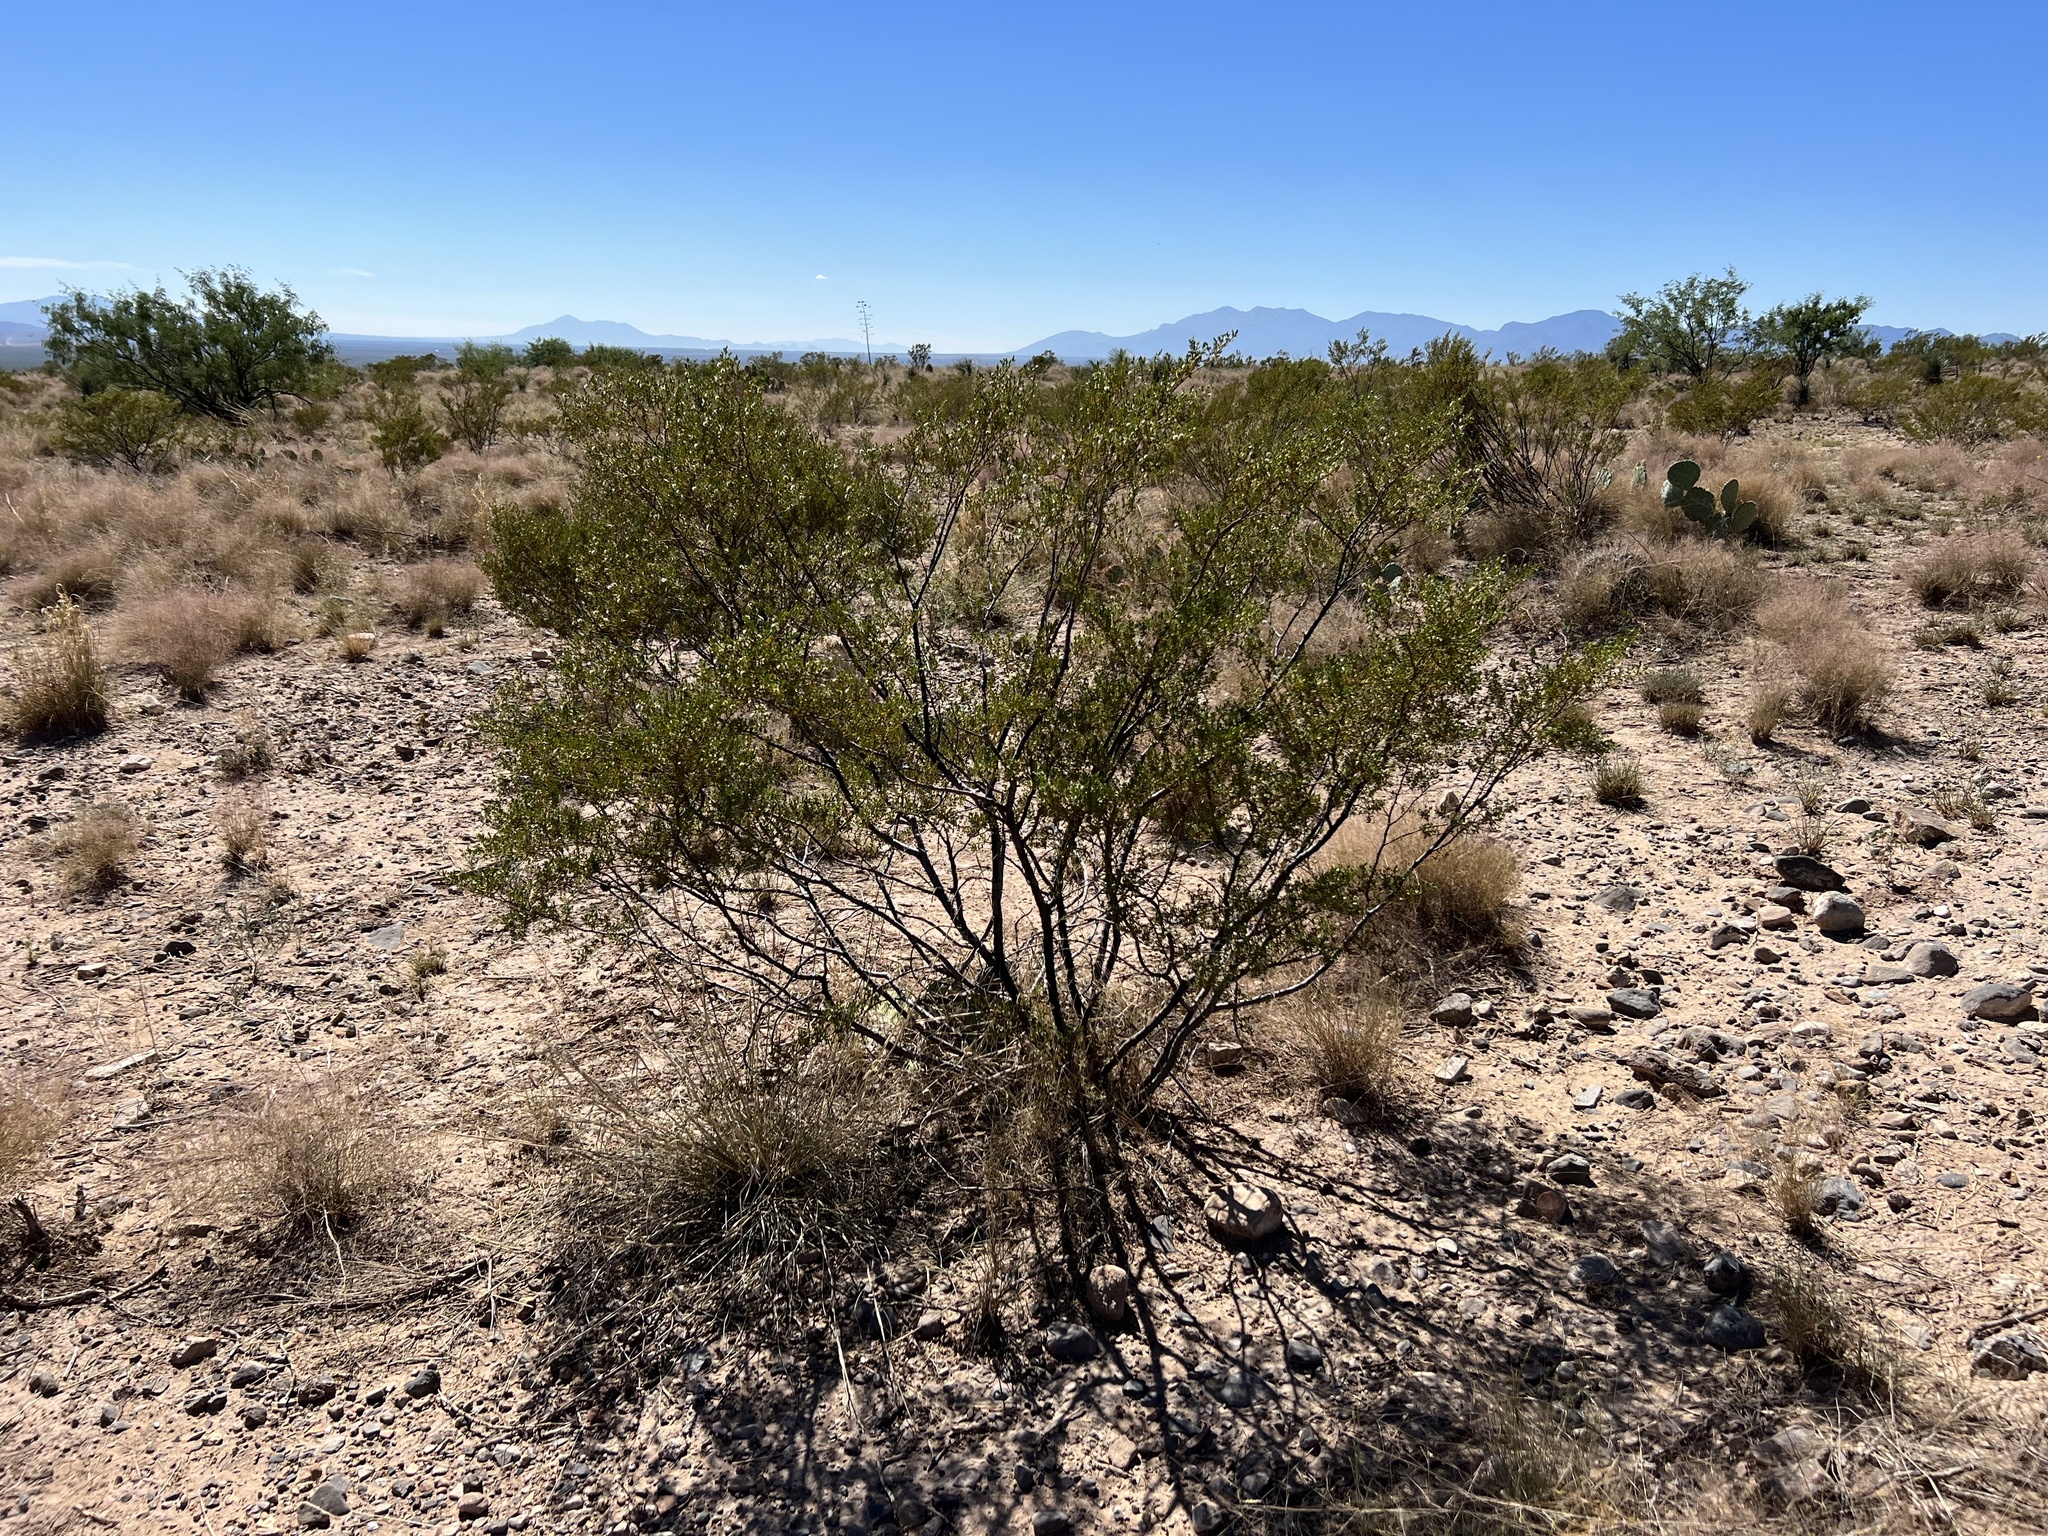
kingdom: Plantae
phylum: Tracheophyta
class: Magnoliopsida
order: Zygophyllales
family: Zygophyllaceae
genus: Larrea
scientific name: Larrea tridentata
